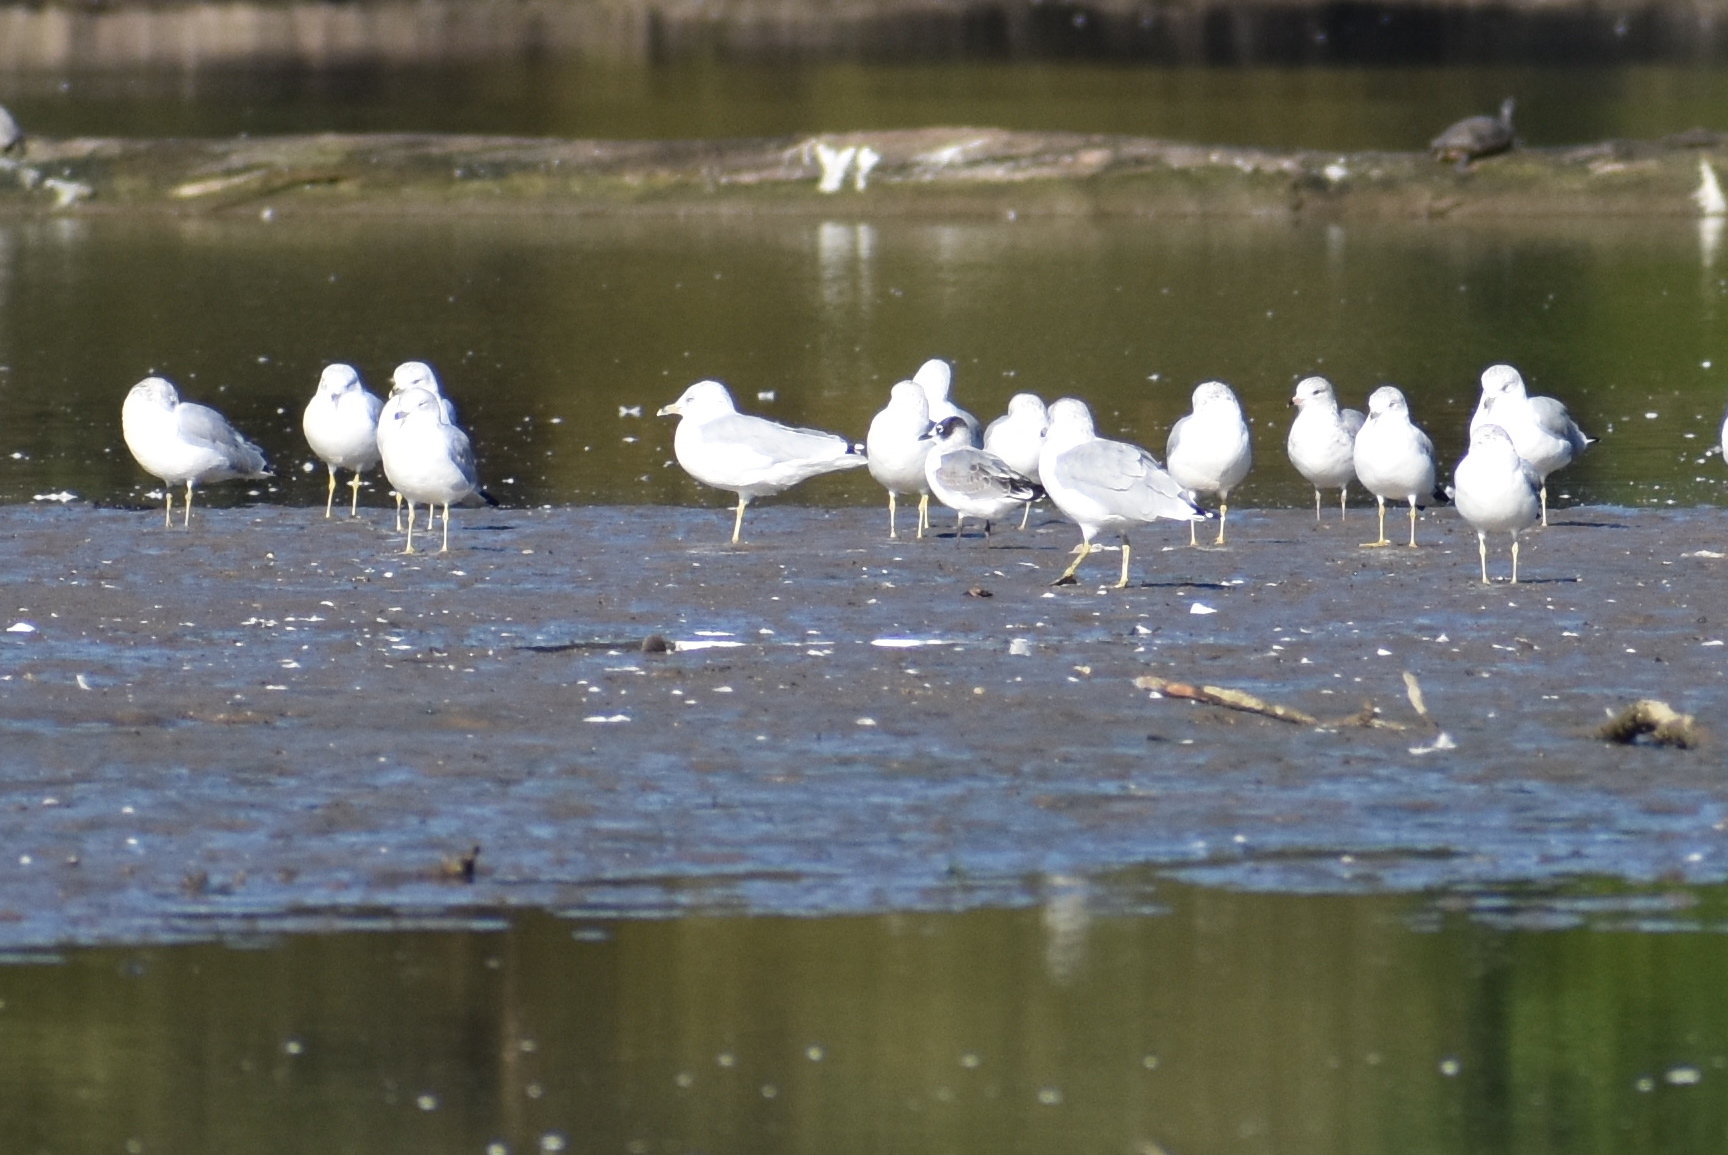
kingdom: Animalia
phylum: Chordata
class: Aves
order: Charadriiformes
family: Laridae
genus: Leucophaeus
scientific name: Leucophaeus pipixcan
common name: Franklin's gull
